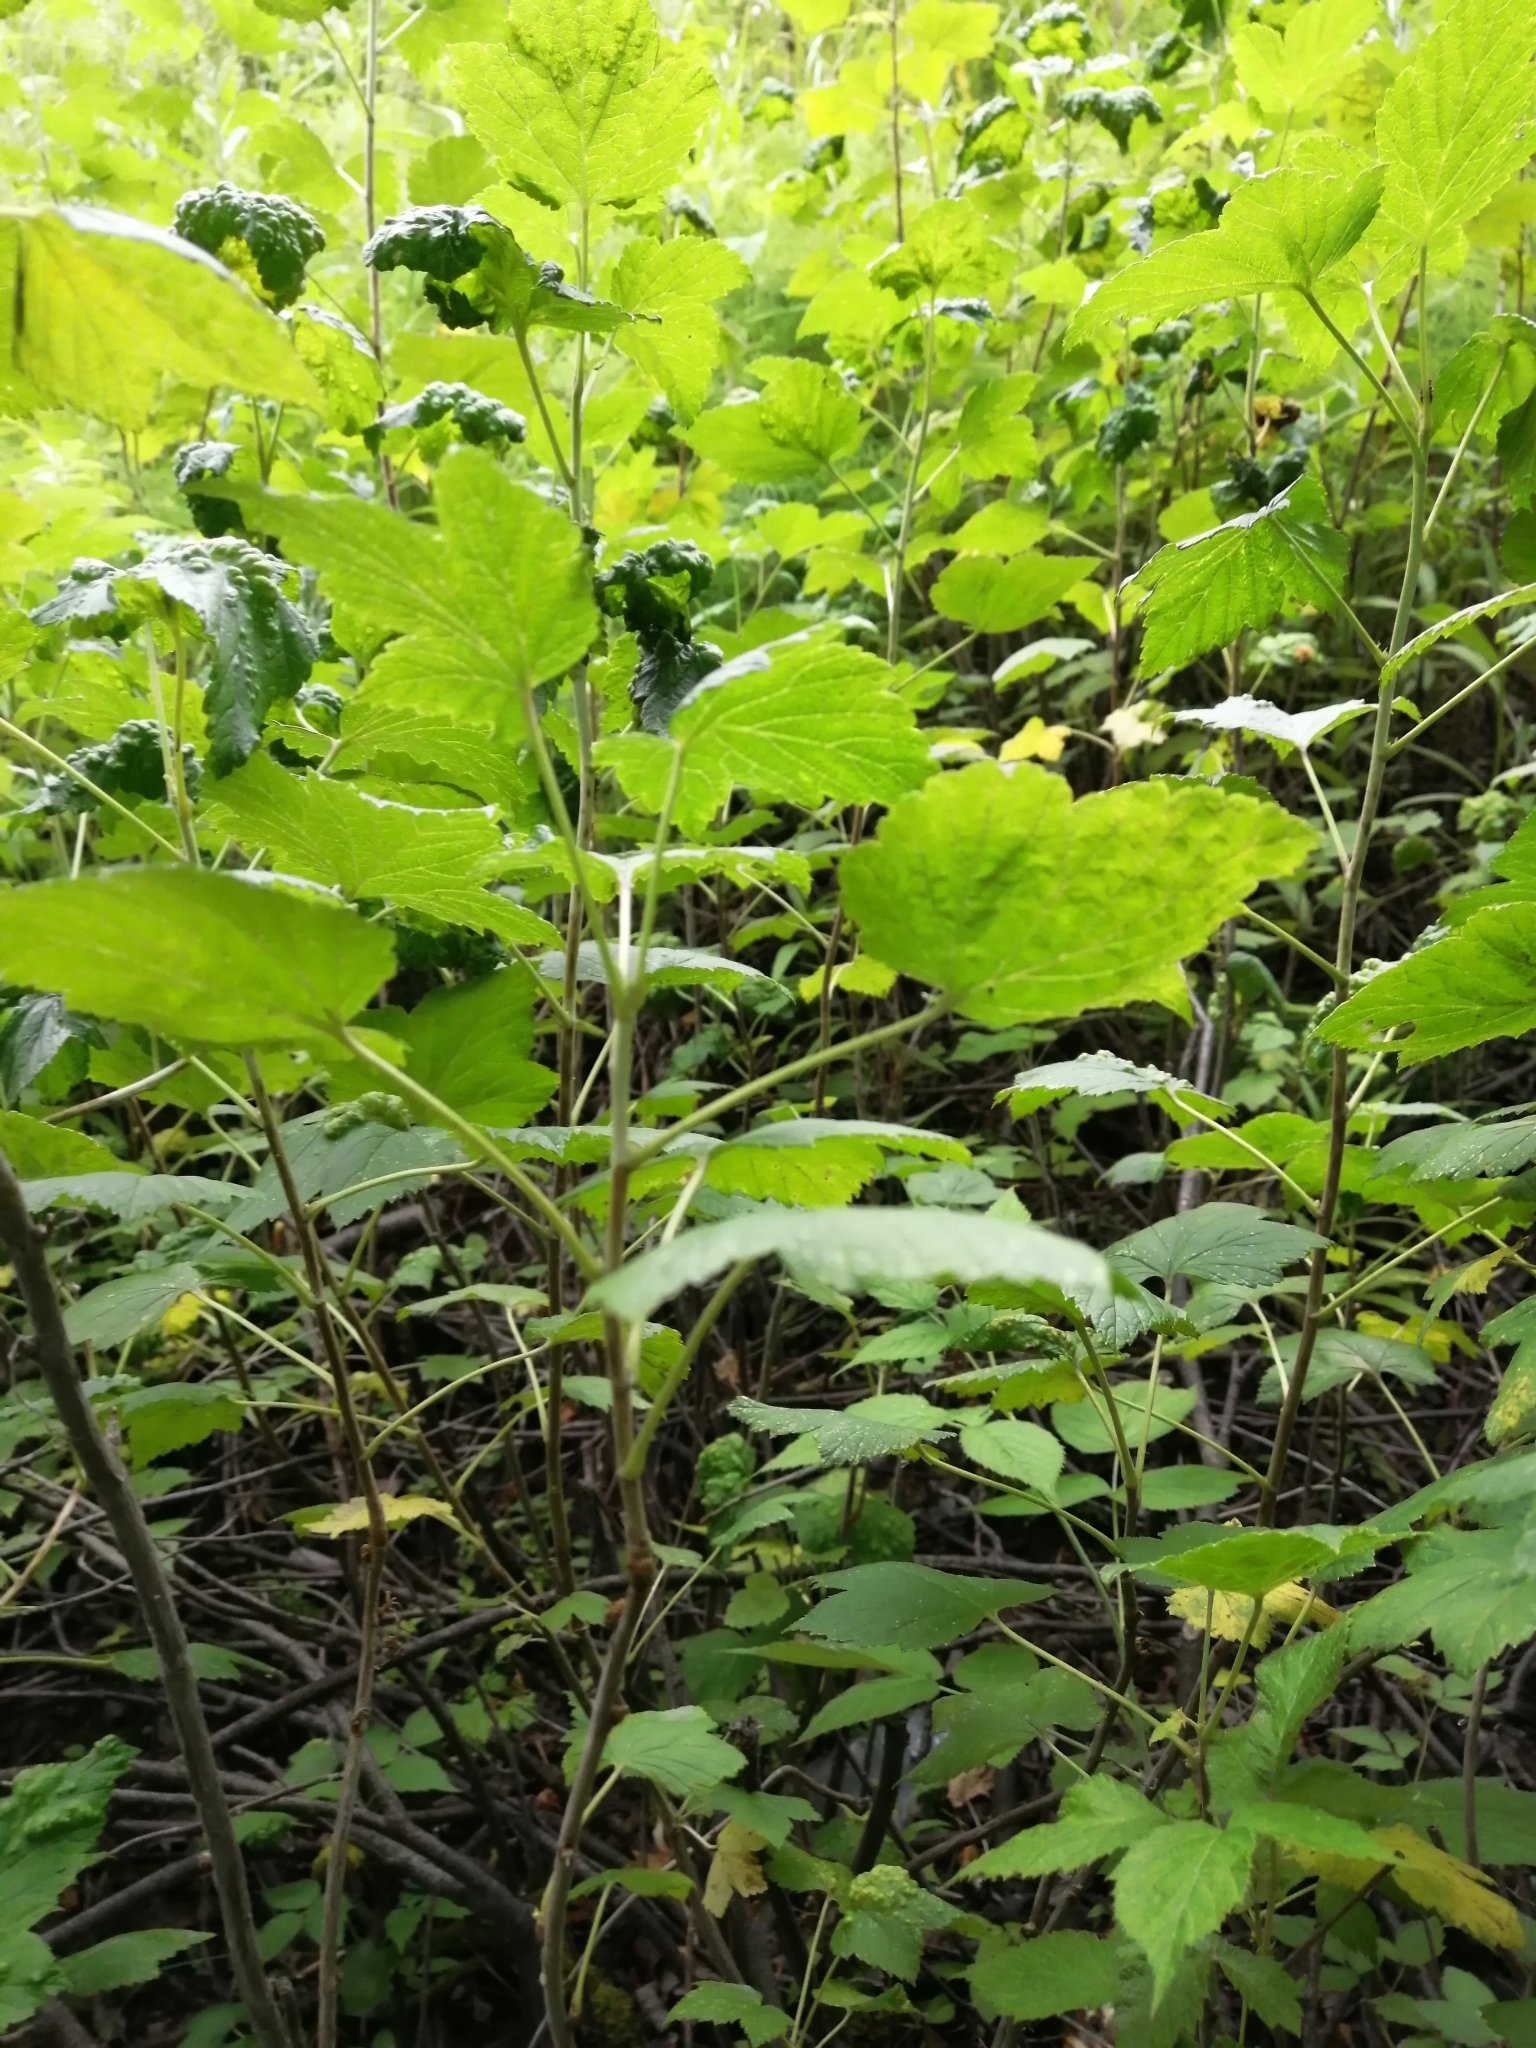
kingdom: Plantae
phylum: Tracheophyta
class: Magnoliopsida
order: Saxifragales
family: Grossulariaceae
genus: Ribes
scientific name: Ribes nigrum
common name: Black currant
